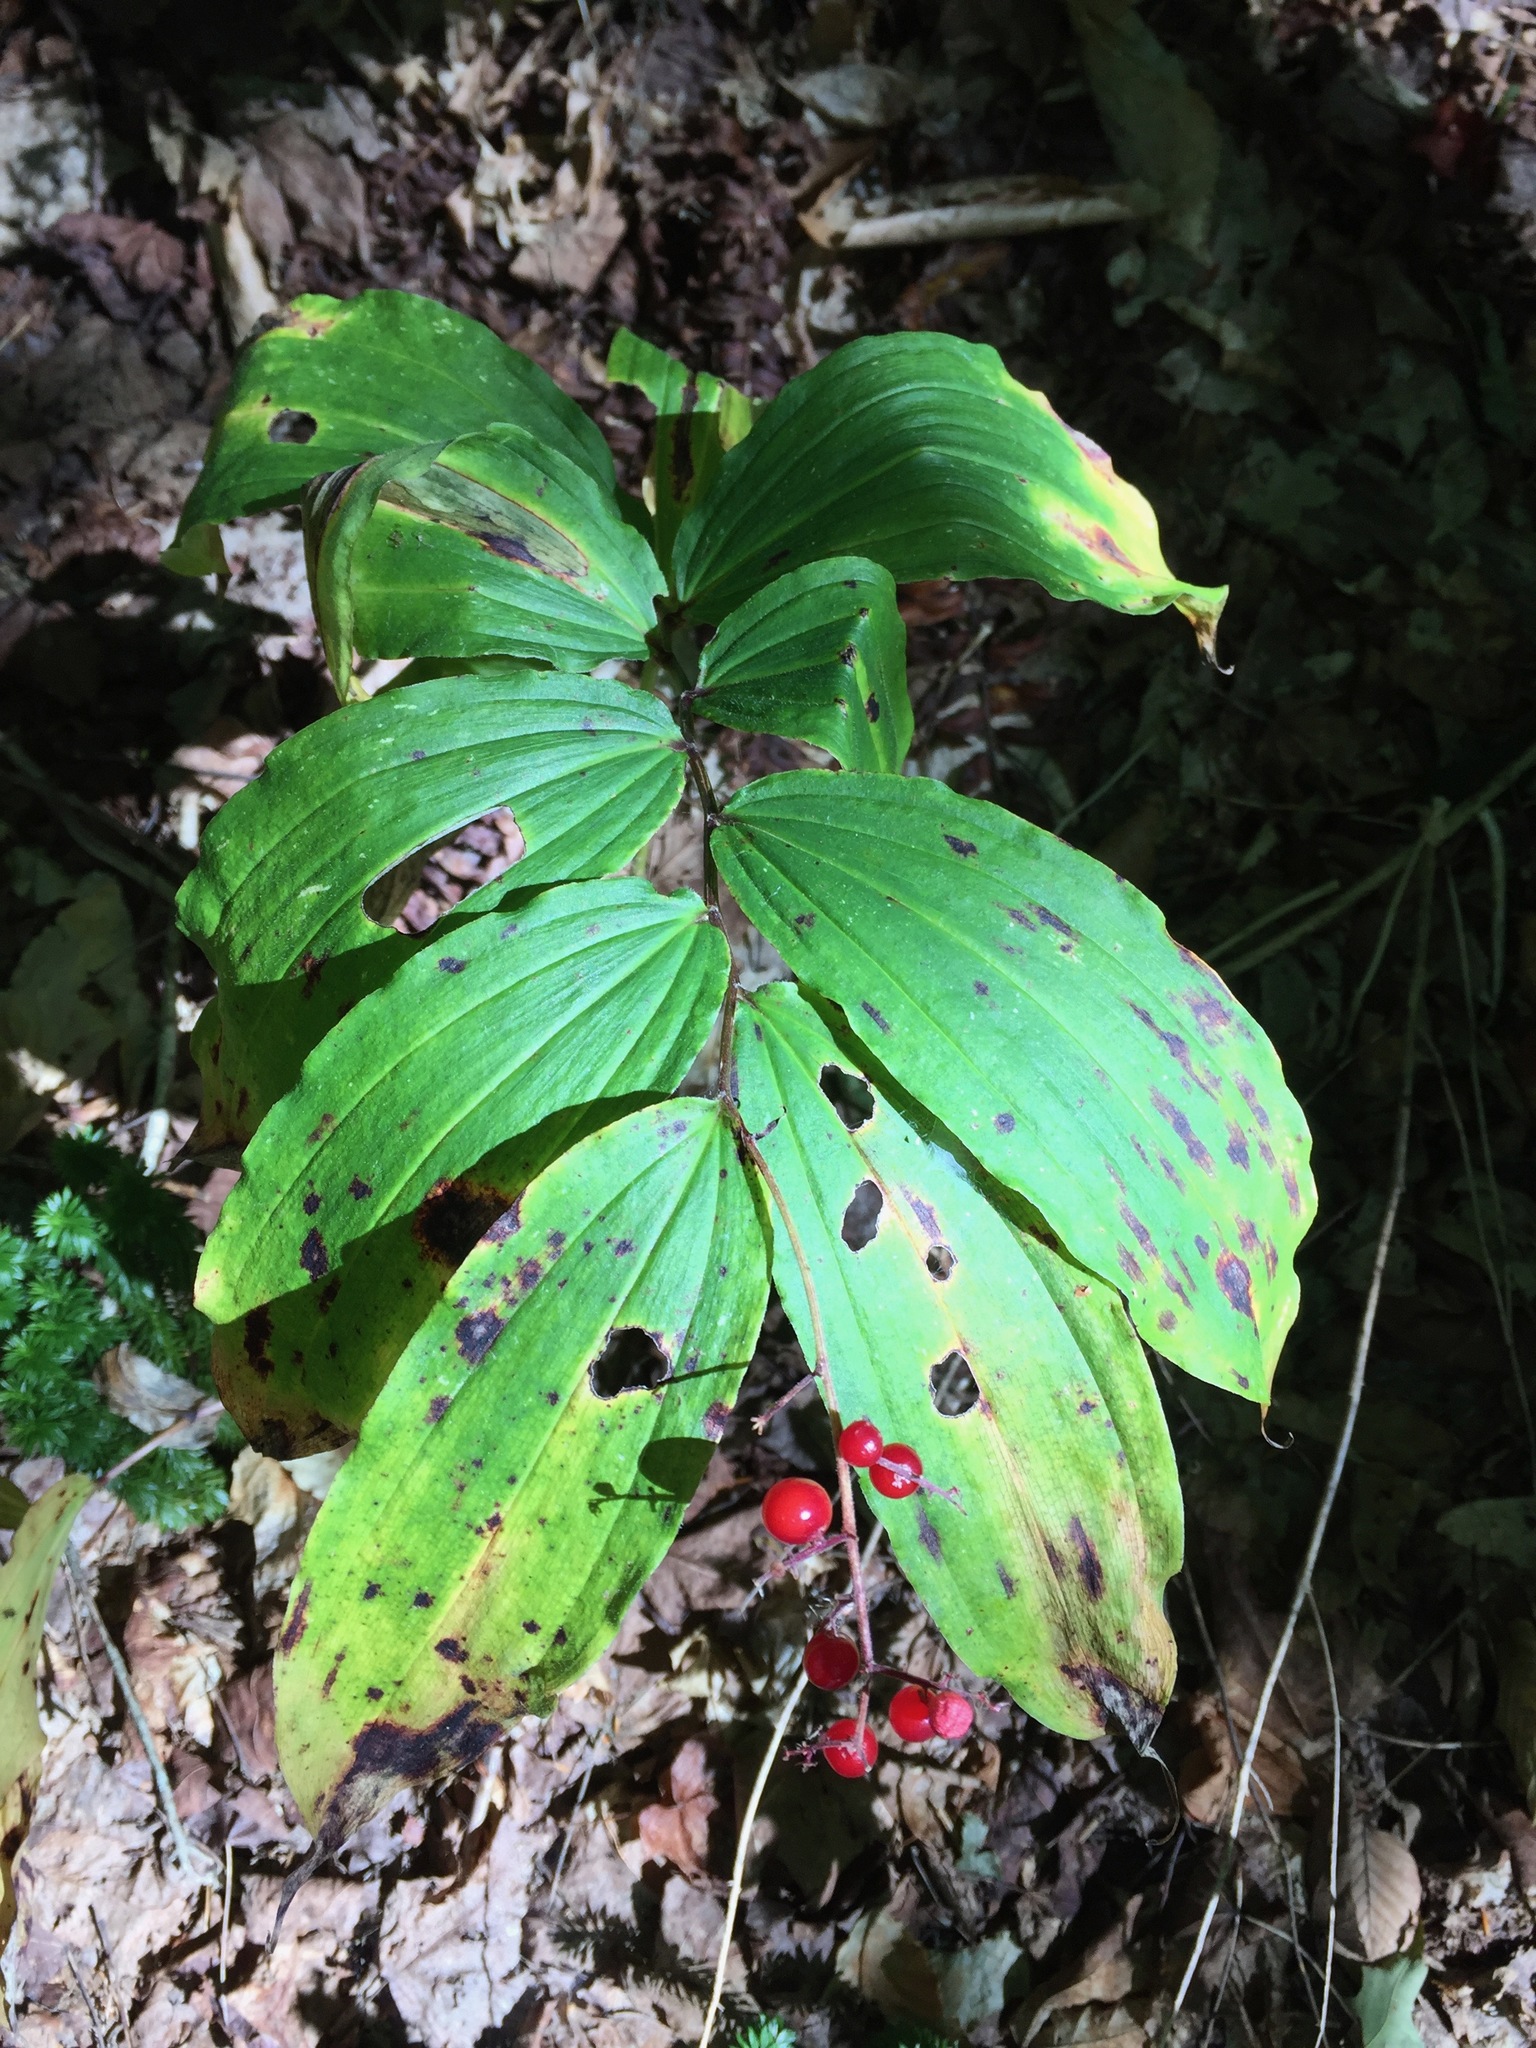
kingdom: Plantae
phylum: Tracheophyta
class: Liliopsida
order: Asparagales
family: Asparagaceae
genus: Maianthemum
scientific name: Maianthemum racemosum
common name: False spikenard
